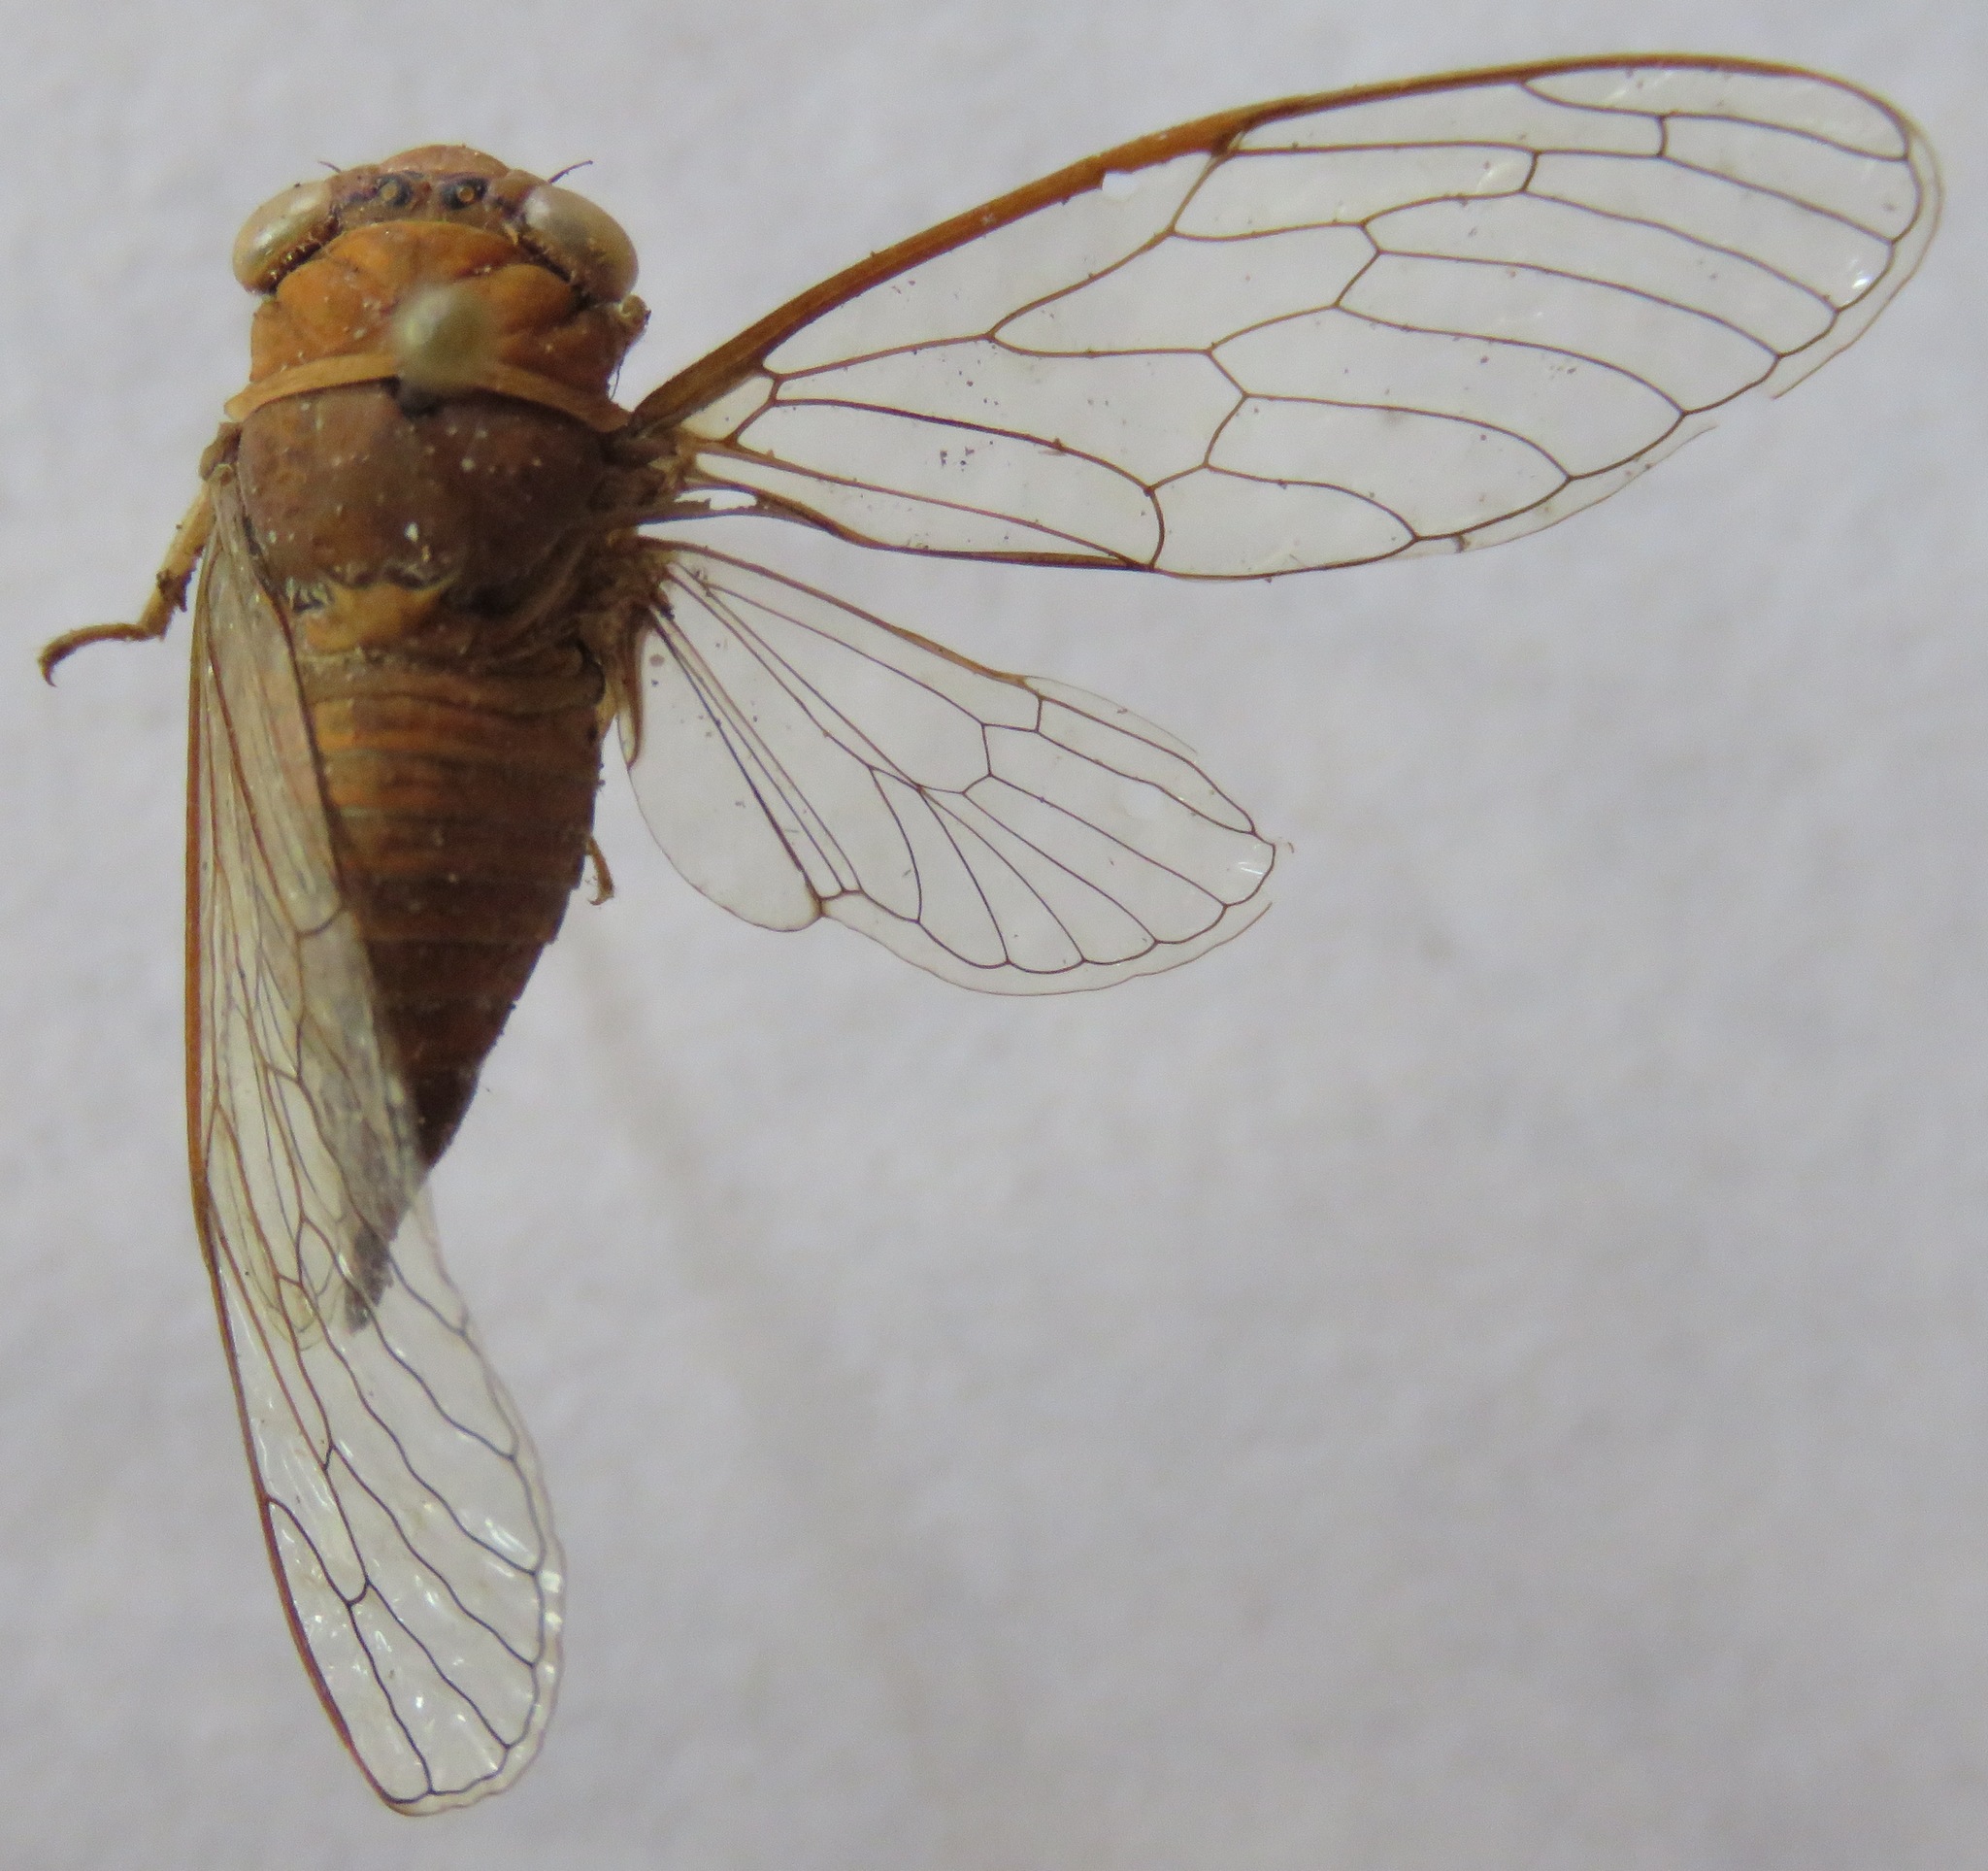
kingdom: Animalia
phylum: Arthropoda
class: Insecta
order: Hemiptera
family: Cicadidae
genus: Herrera
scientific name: Herrera coyamensis
